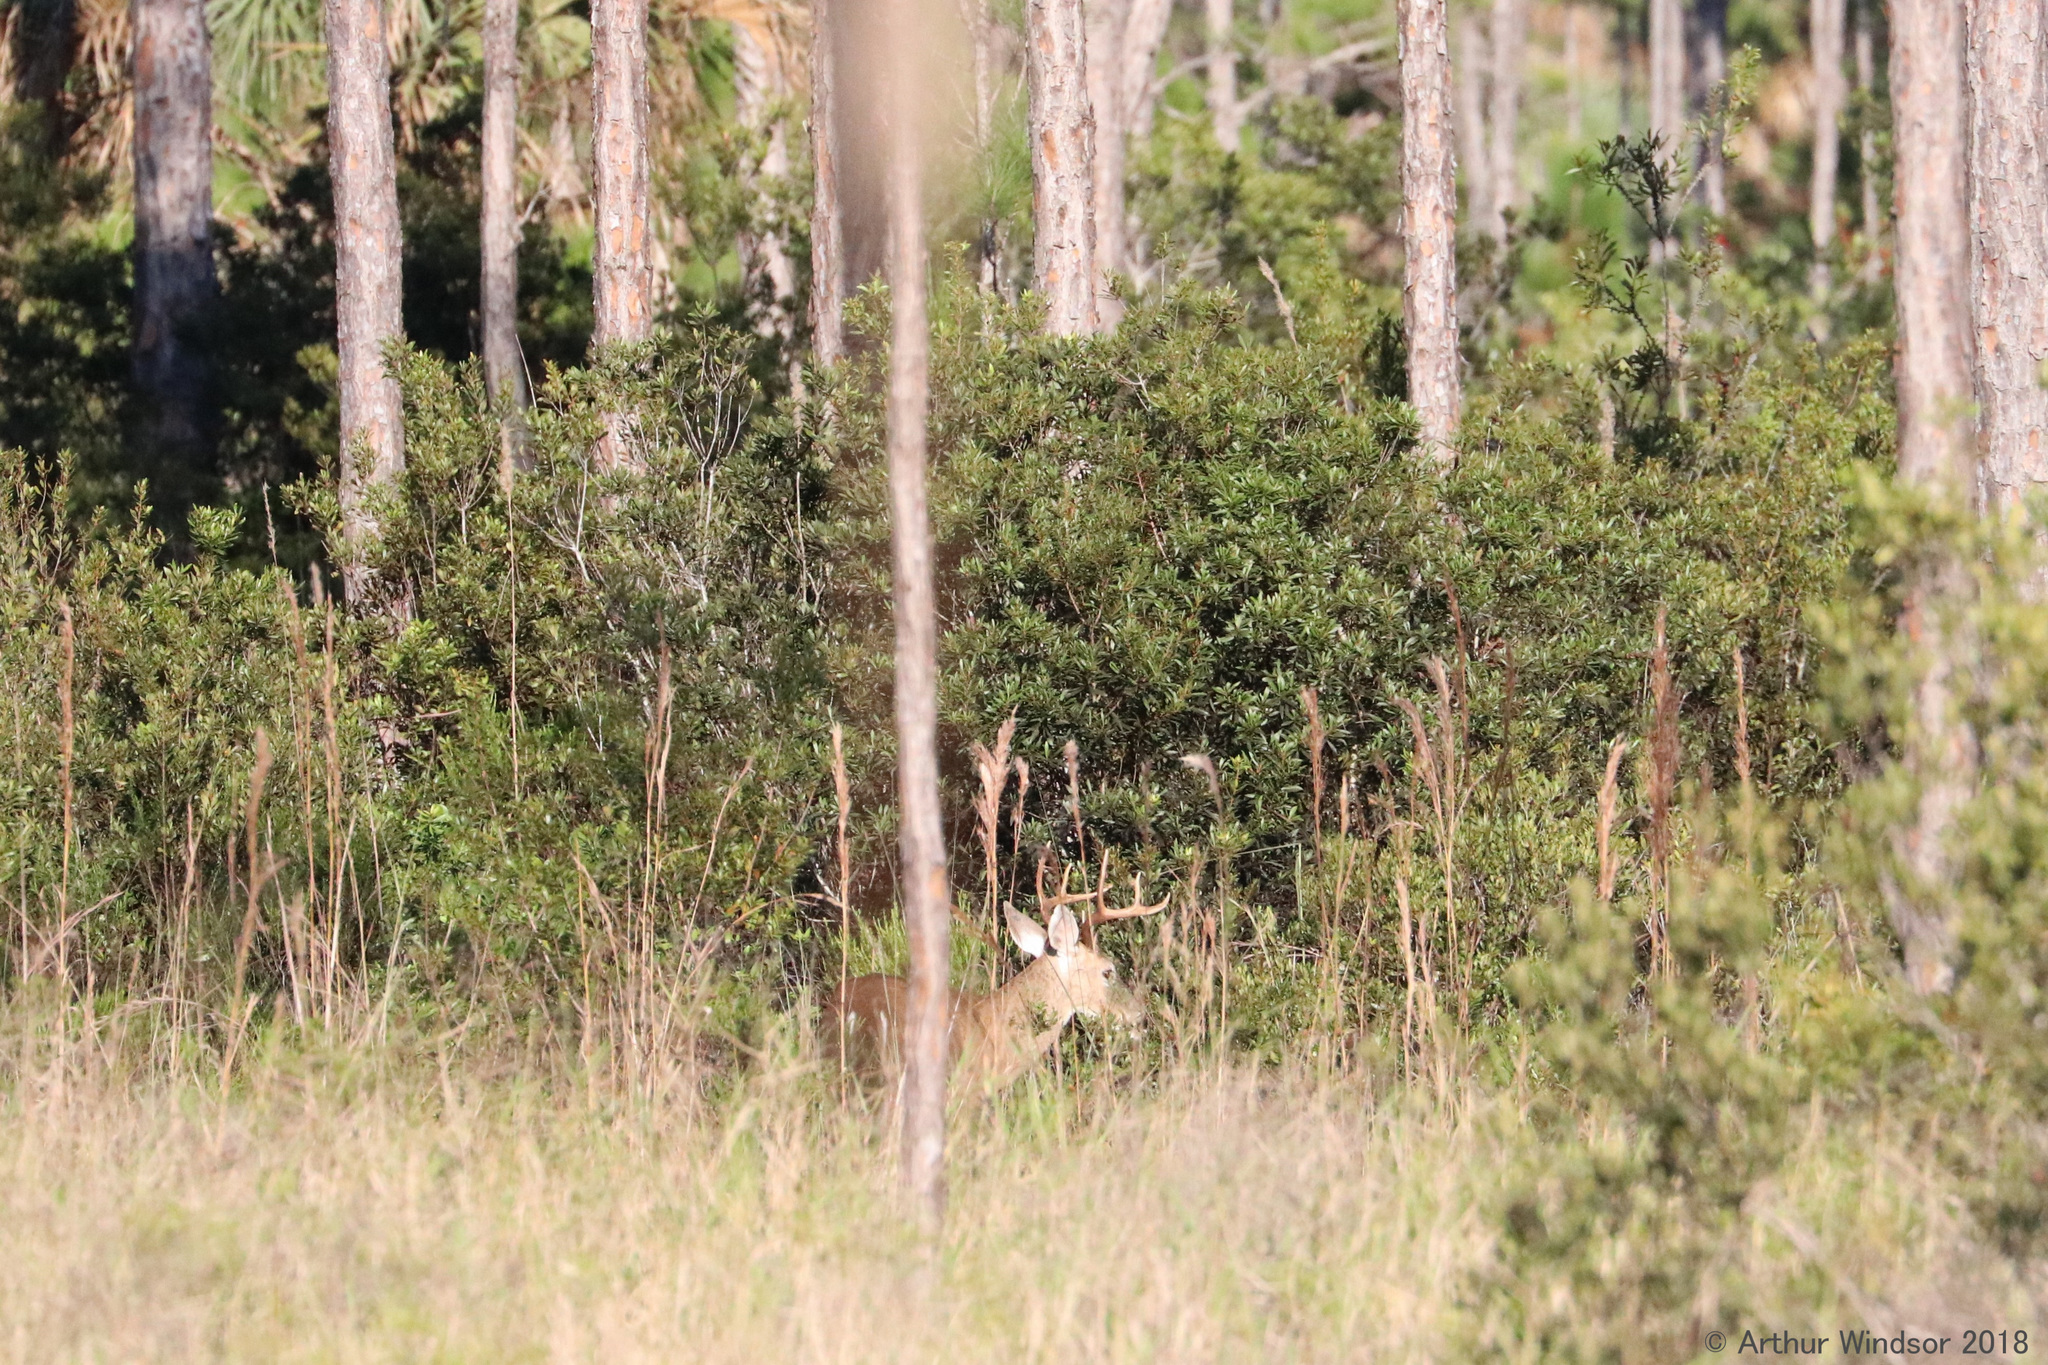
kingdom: Animalia
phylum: Chordata
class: Mammalia
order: Artiodactyla
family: Cervidae
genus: Odocoileus
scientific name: Odocoileus virginianus
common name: White-tailed deer
